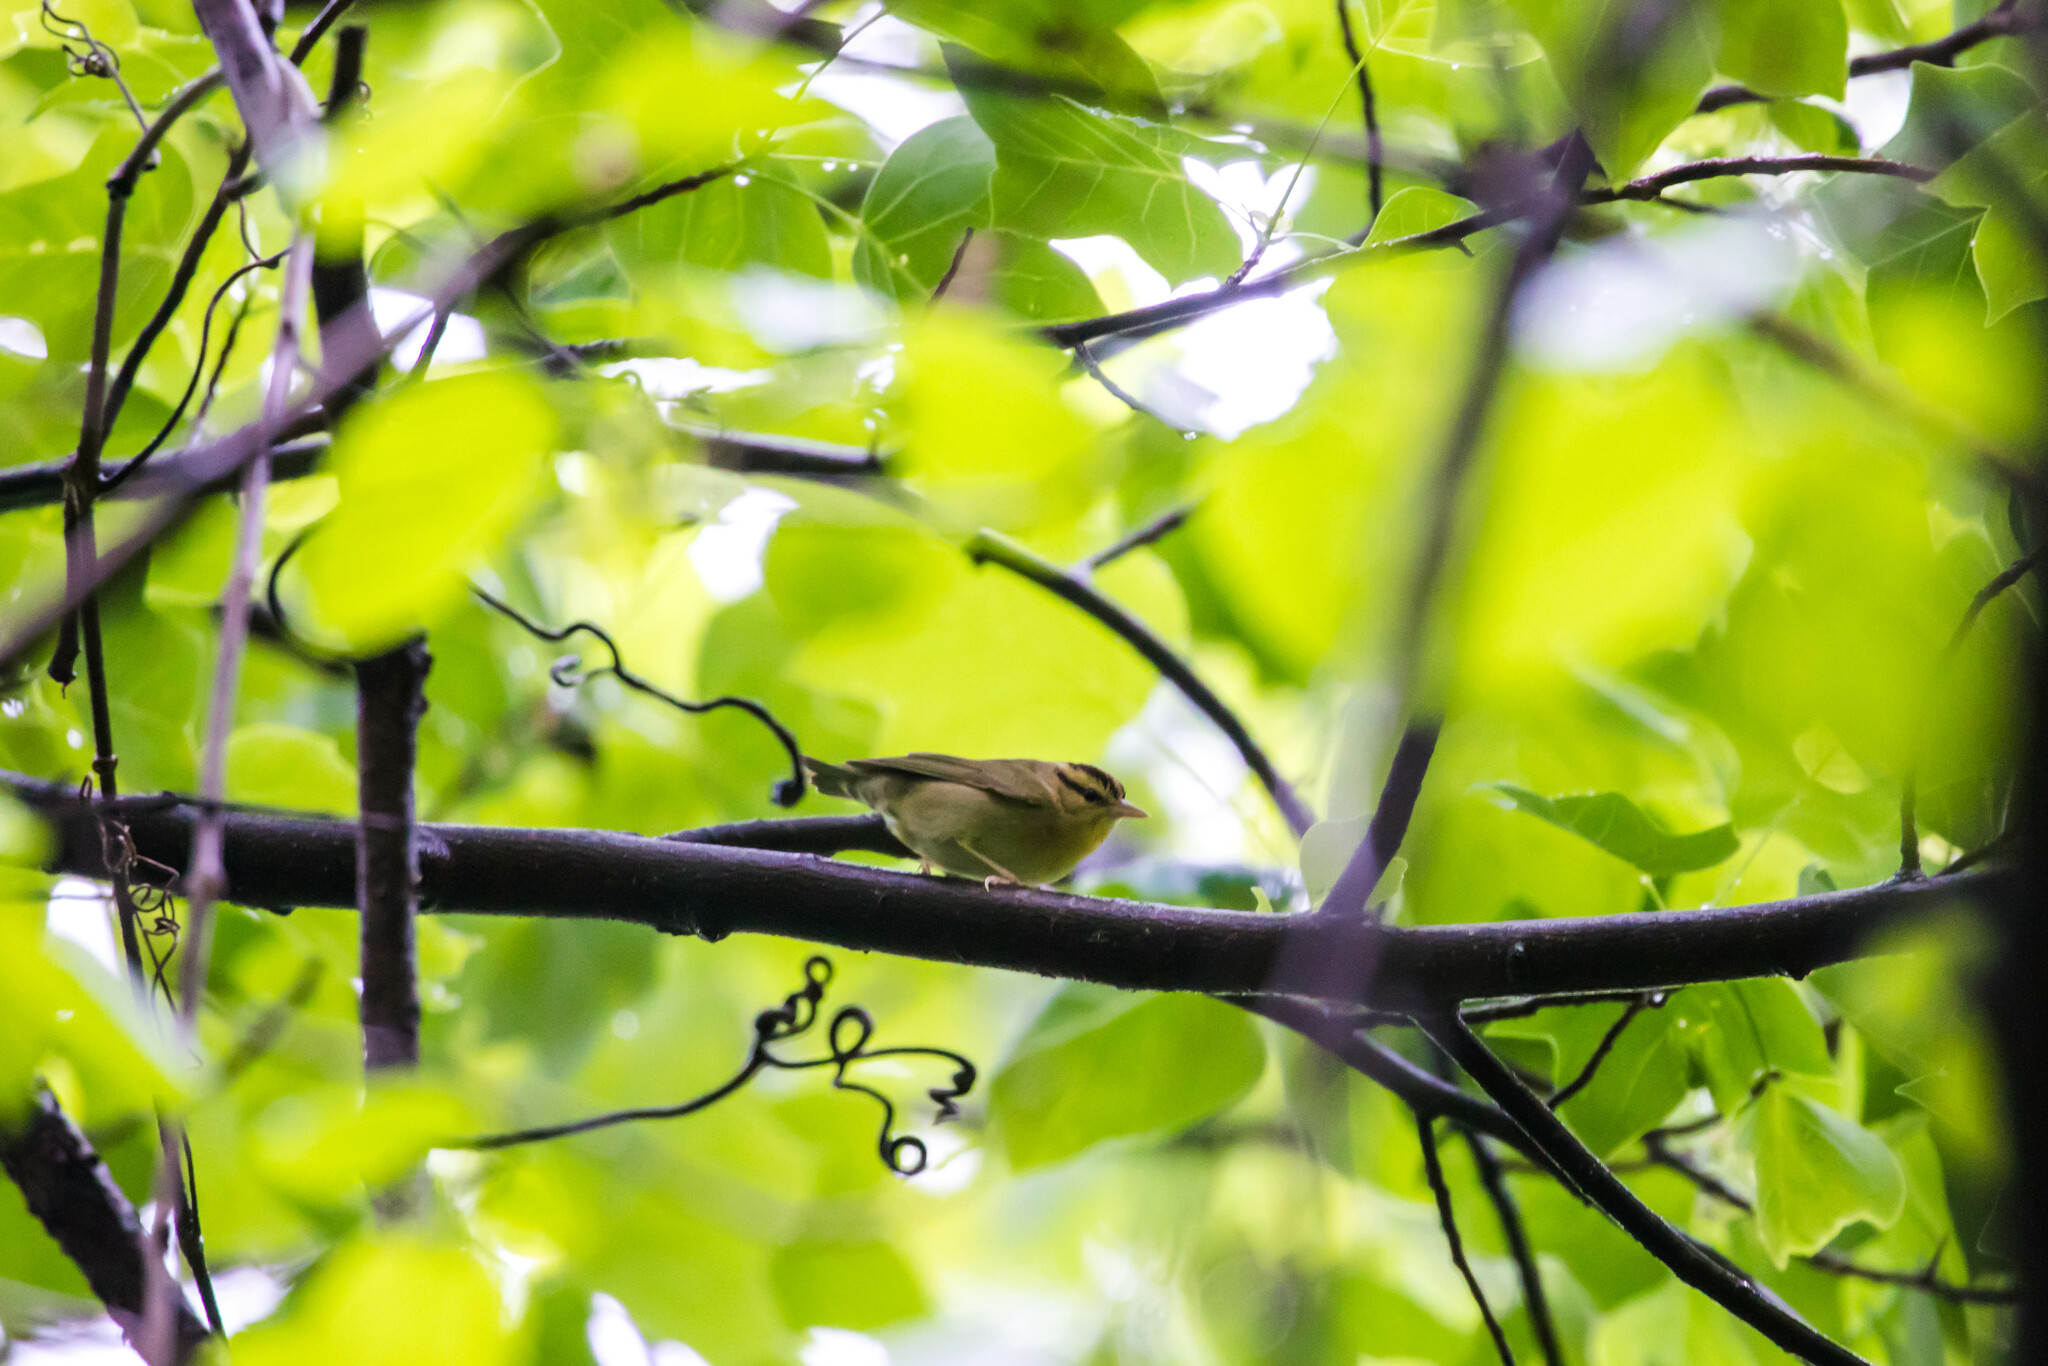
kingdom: Animalia
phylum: Chordata
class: Aves
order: Passeriformes
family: Parulidae
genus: Helmitheros
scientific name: Helmitheros vermivorum
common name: Worm-eating warbler
